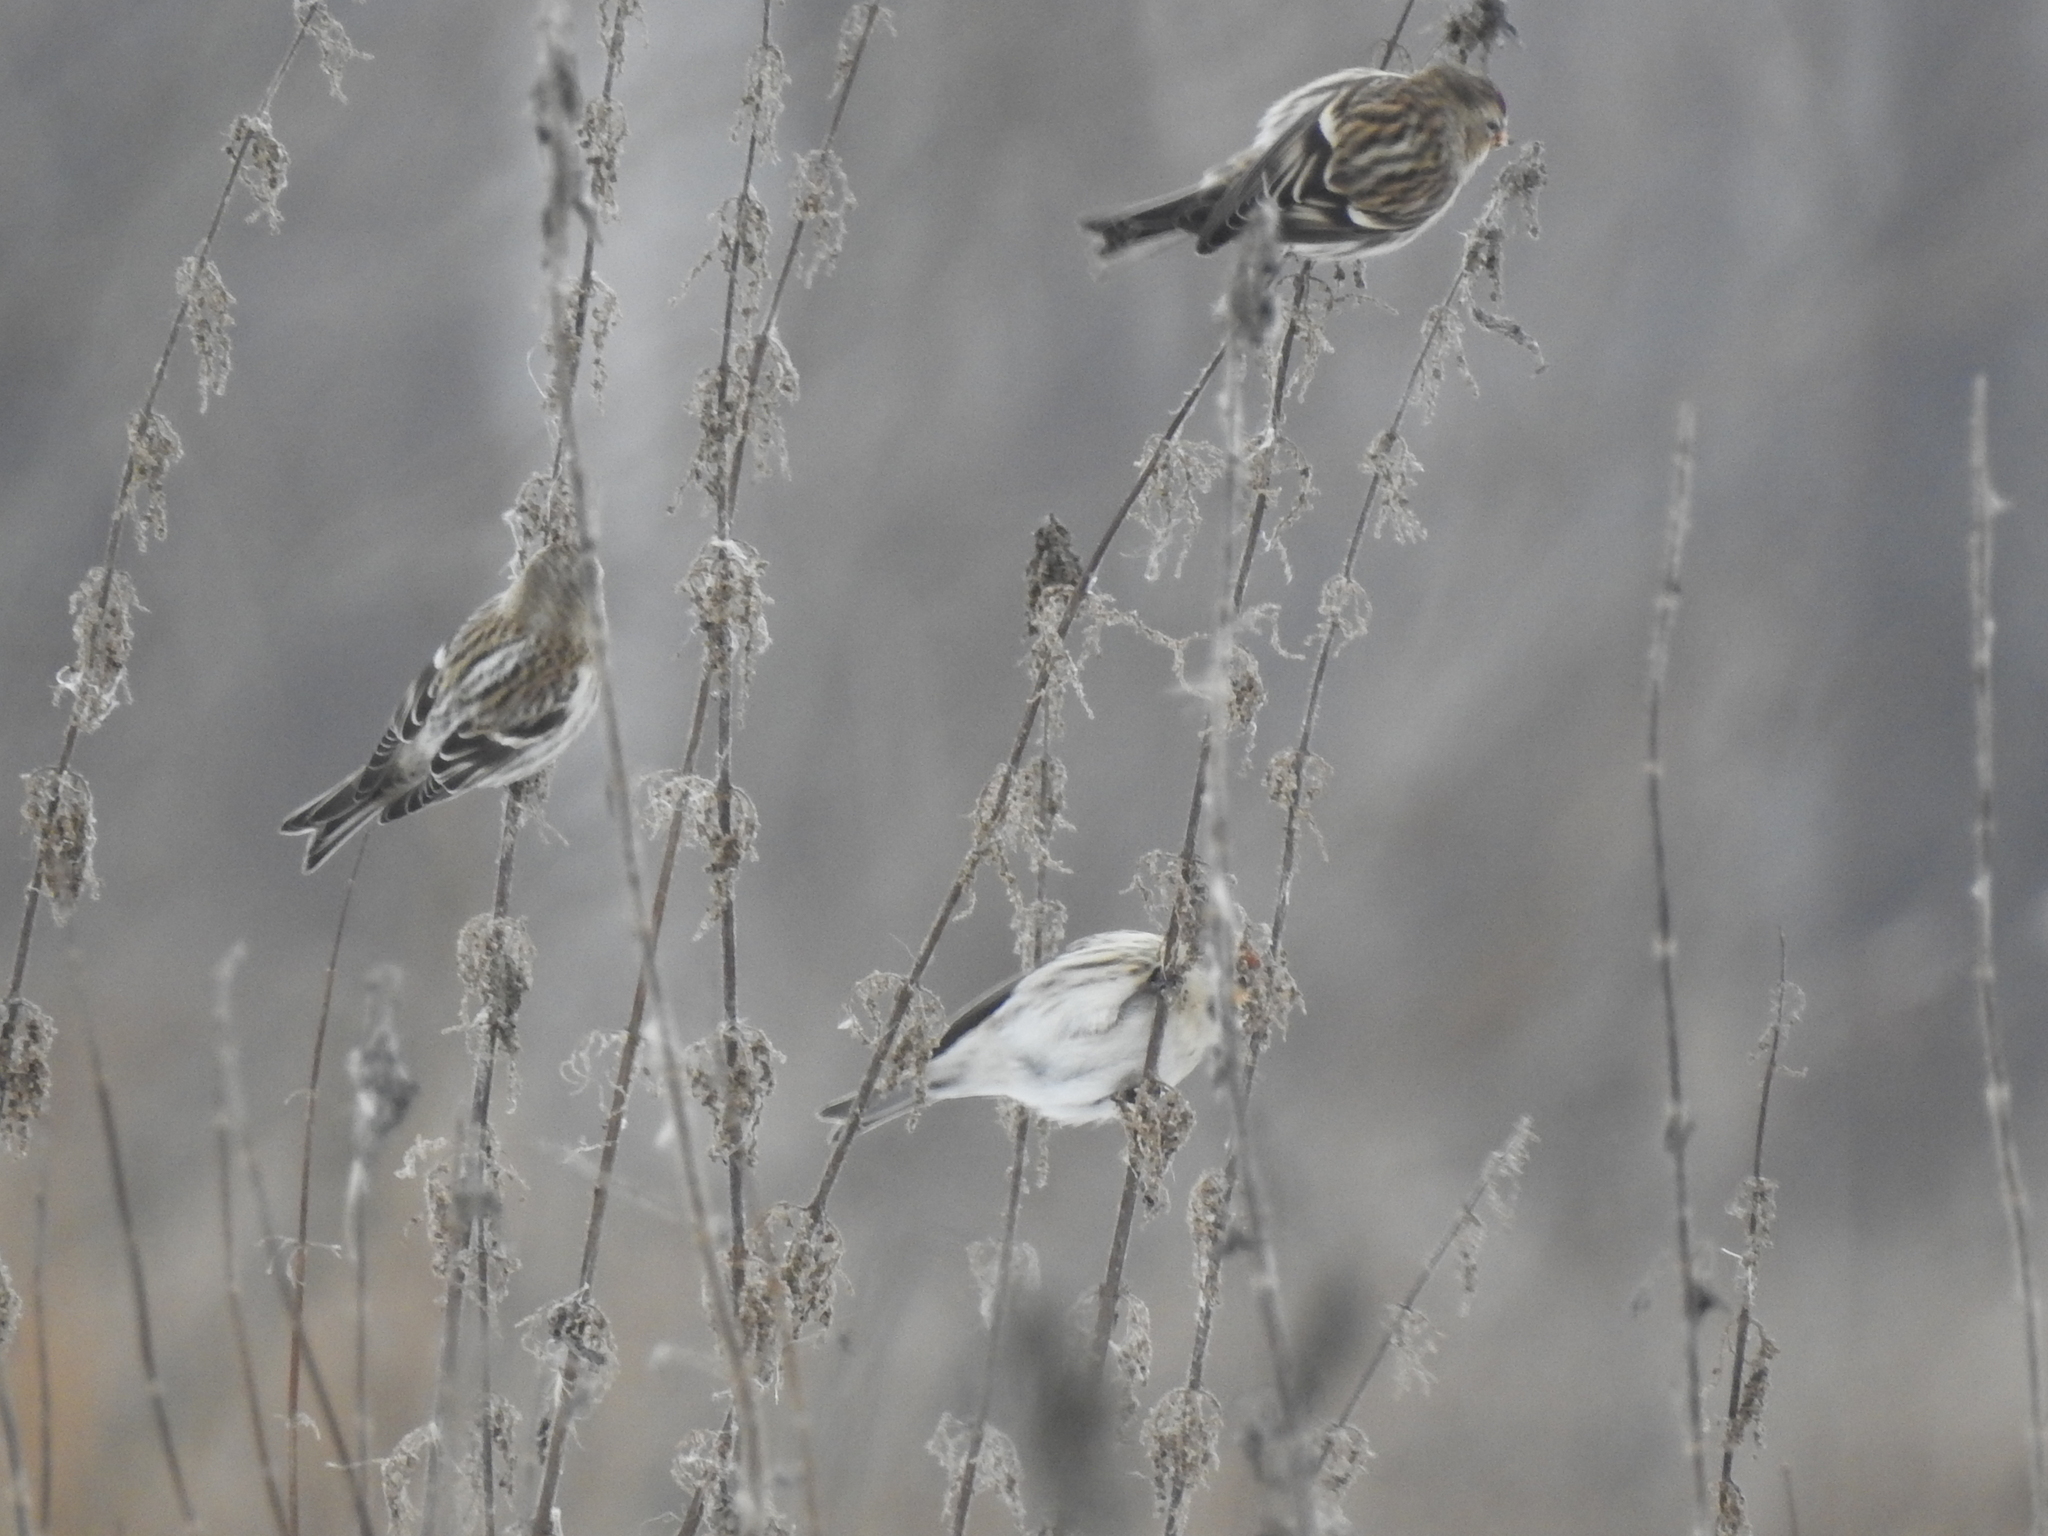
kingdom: Animalia
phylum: Chordata
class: Aves
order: Passeriformes
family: Fringillidae
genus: Acanthis
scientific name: Acanthis flammea
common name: Common redpoll
